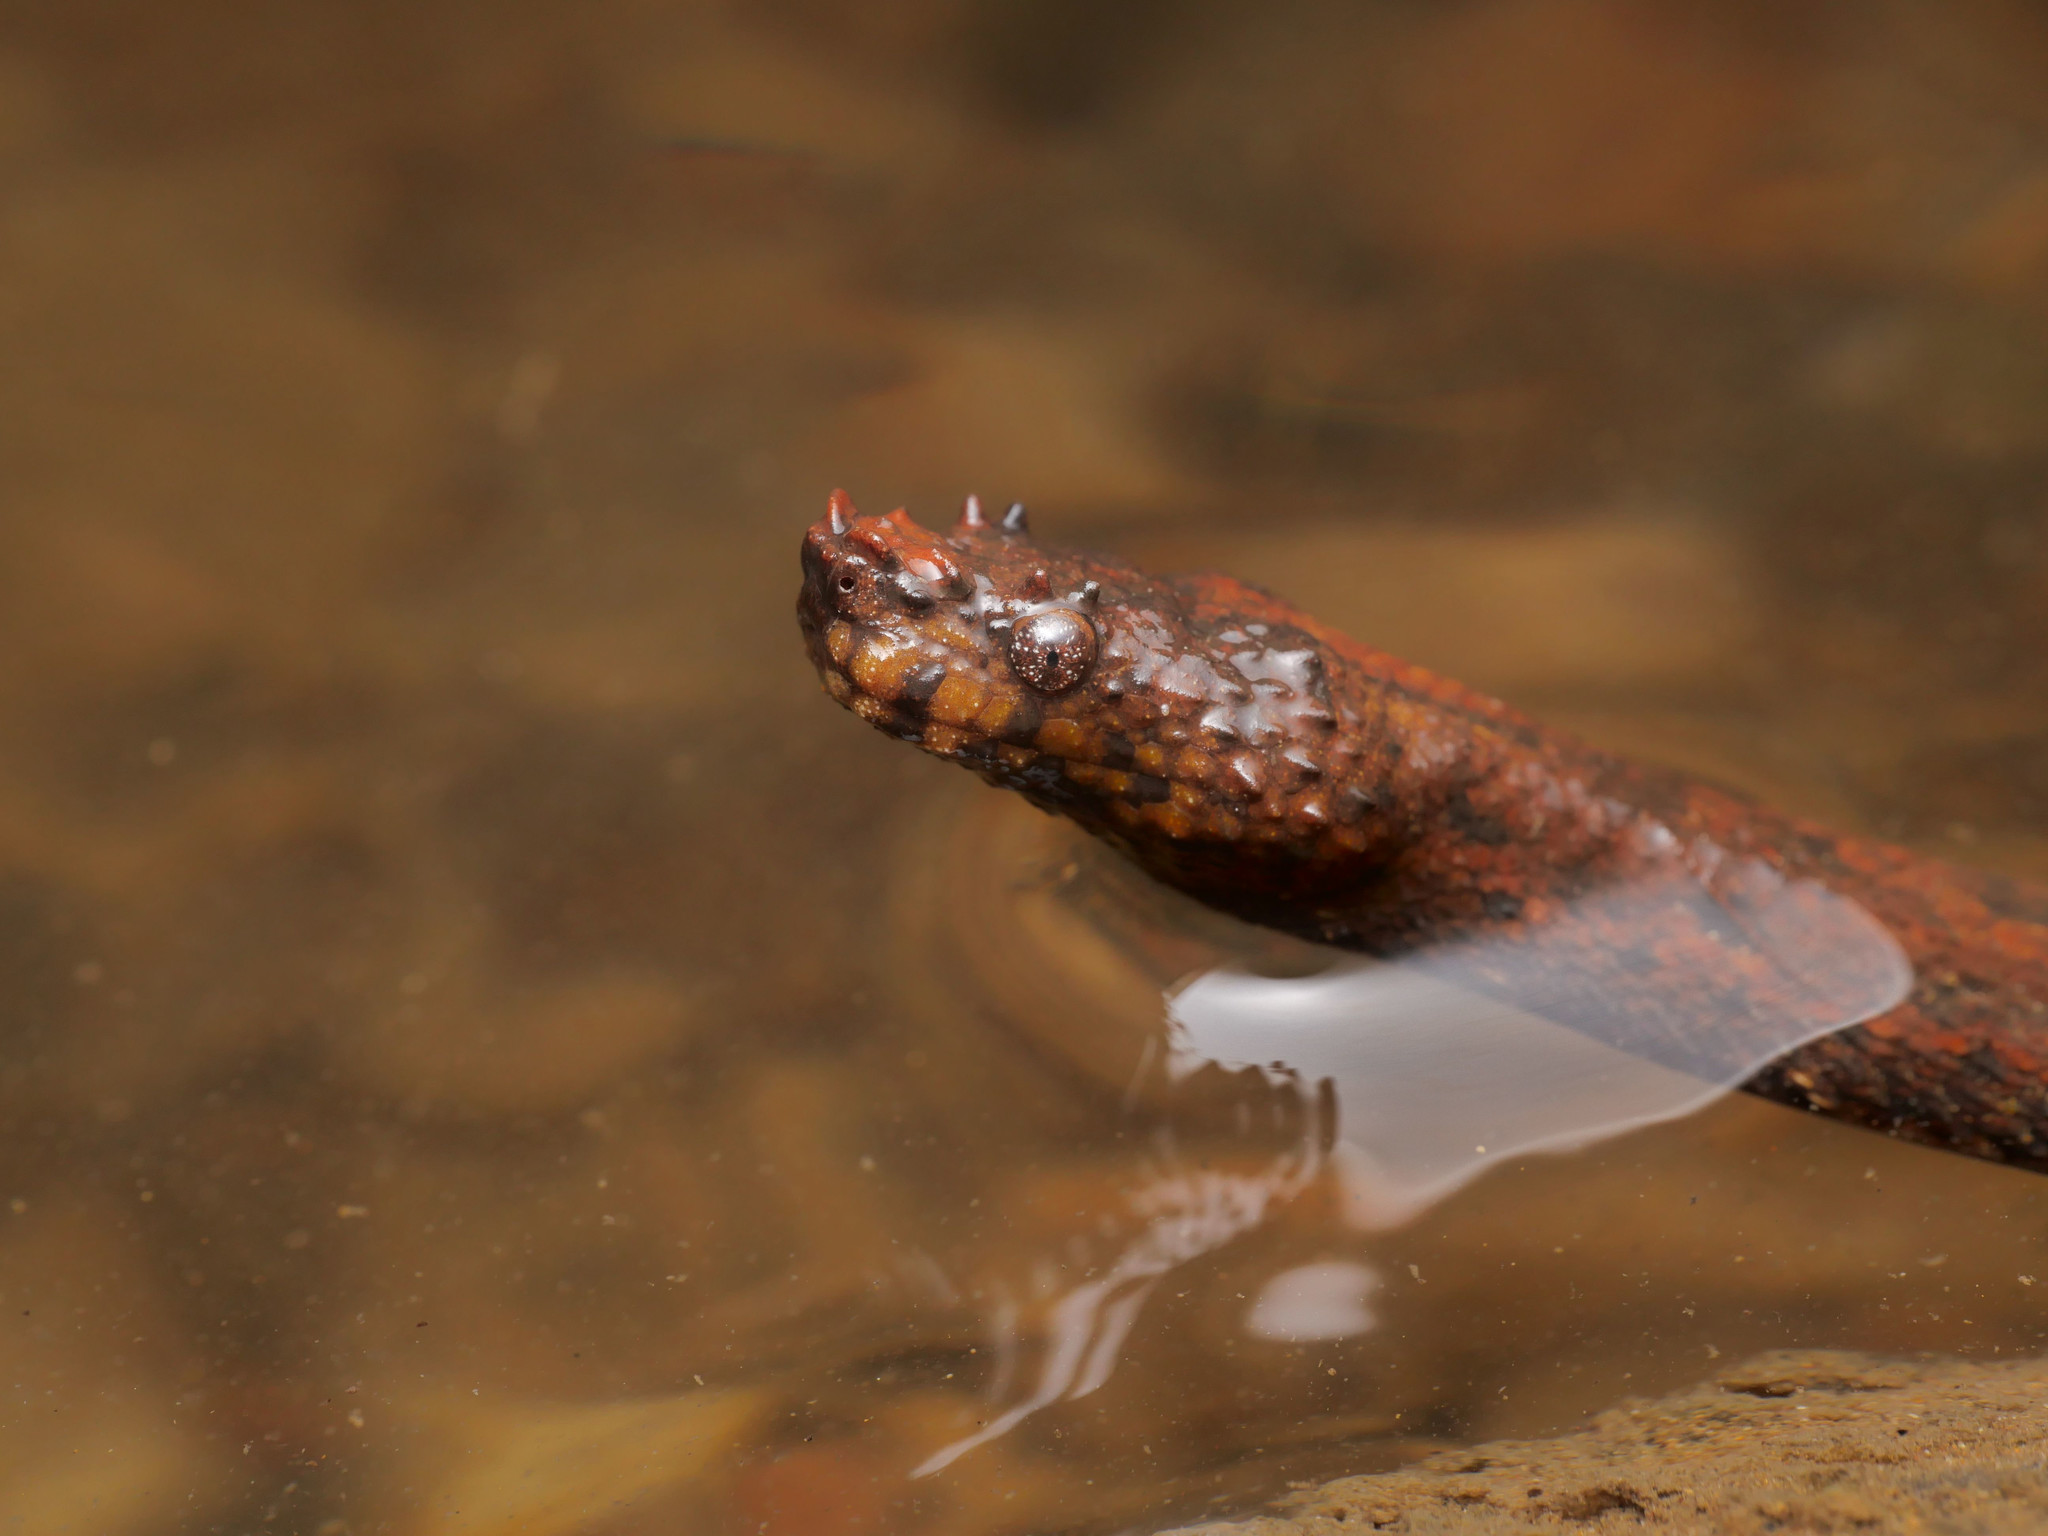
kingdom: Animalia
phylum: Chordata
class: Squamata
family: Tropidophiidae
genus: Trachyboa
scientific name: Trachyboa boulengeri
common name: Northern eyelash boa
